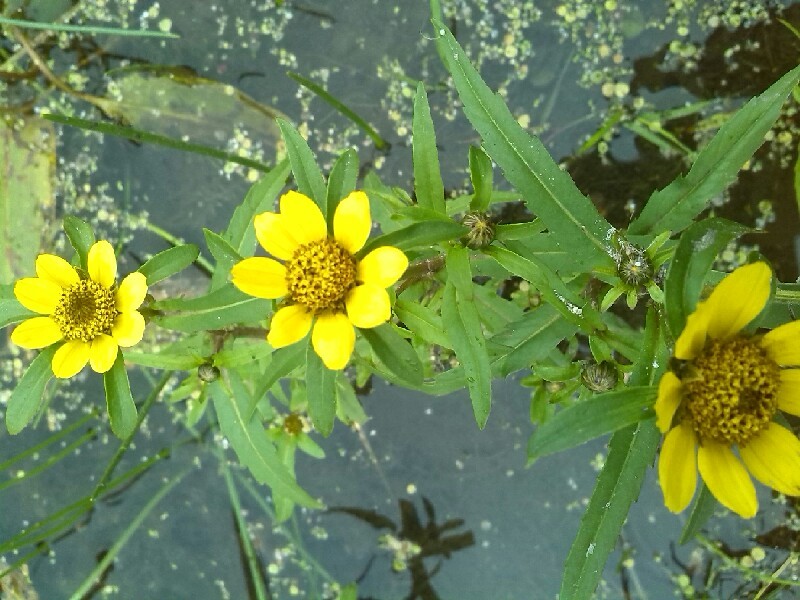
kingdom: Plantae
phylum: Tracheophyta
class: Magnoliopsida
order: Asterales
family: Asteraceae
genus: Bidens
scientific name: Bidens cernua
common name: Nodding bur-marigold
